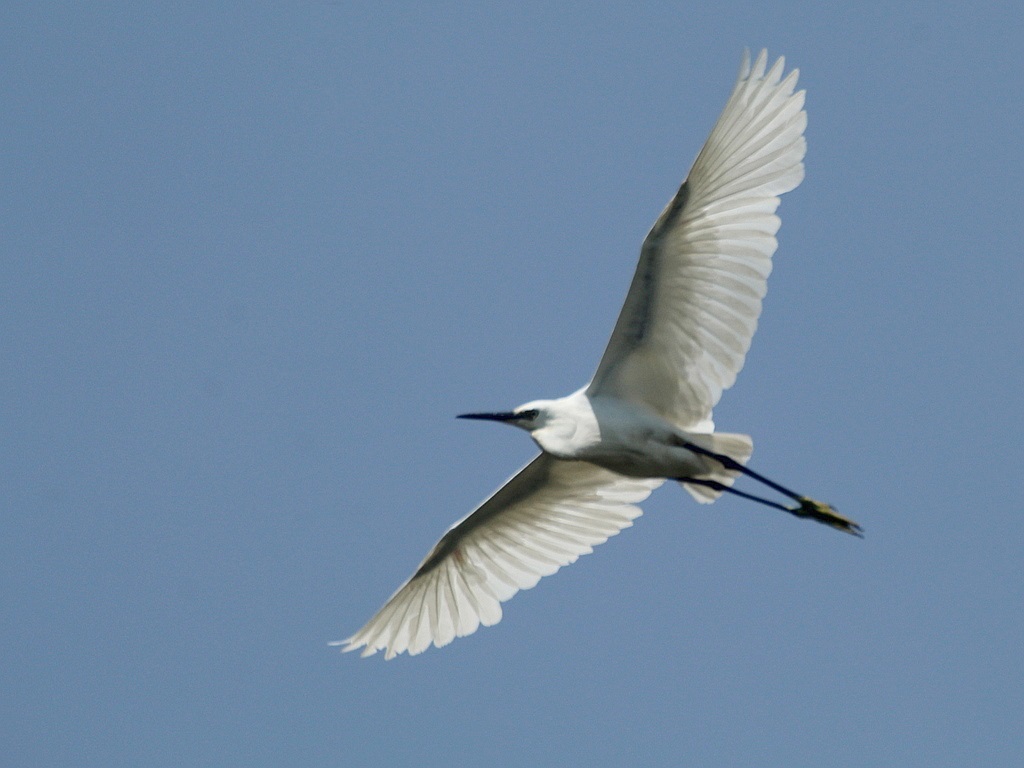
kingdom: Animalia
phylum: Chordata
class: Aves
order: Pelecaniformes
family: Ardeidae
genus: Egretta
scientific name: Egretta garzetta
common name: Little egret
